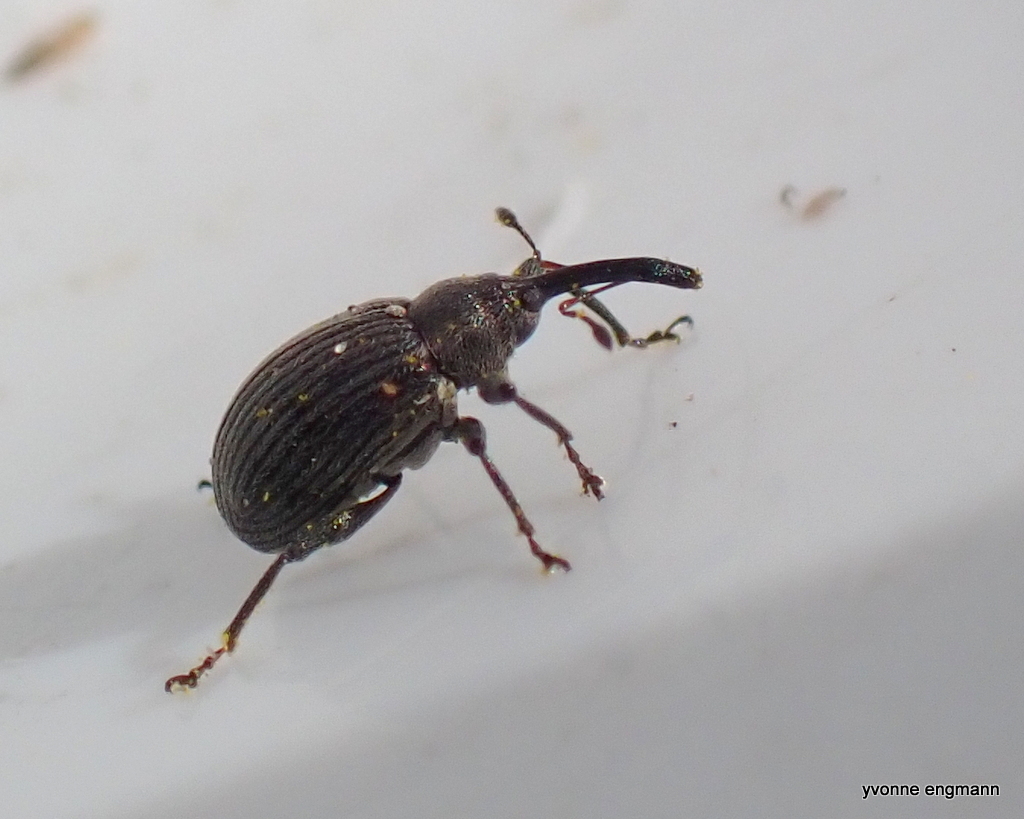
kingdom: Animalia
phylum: Arthropoda
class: Insecta
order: Coleoptera
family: Curculionidae
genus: Anthonomus
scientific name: Anthonomus rubi
